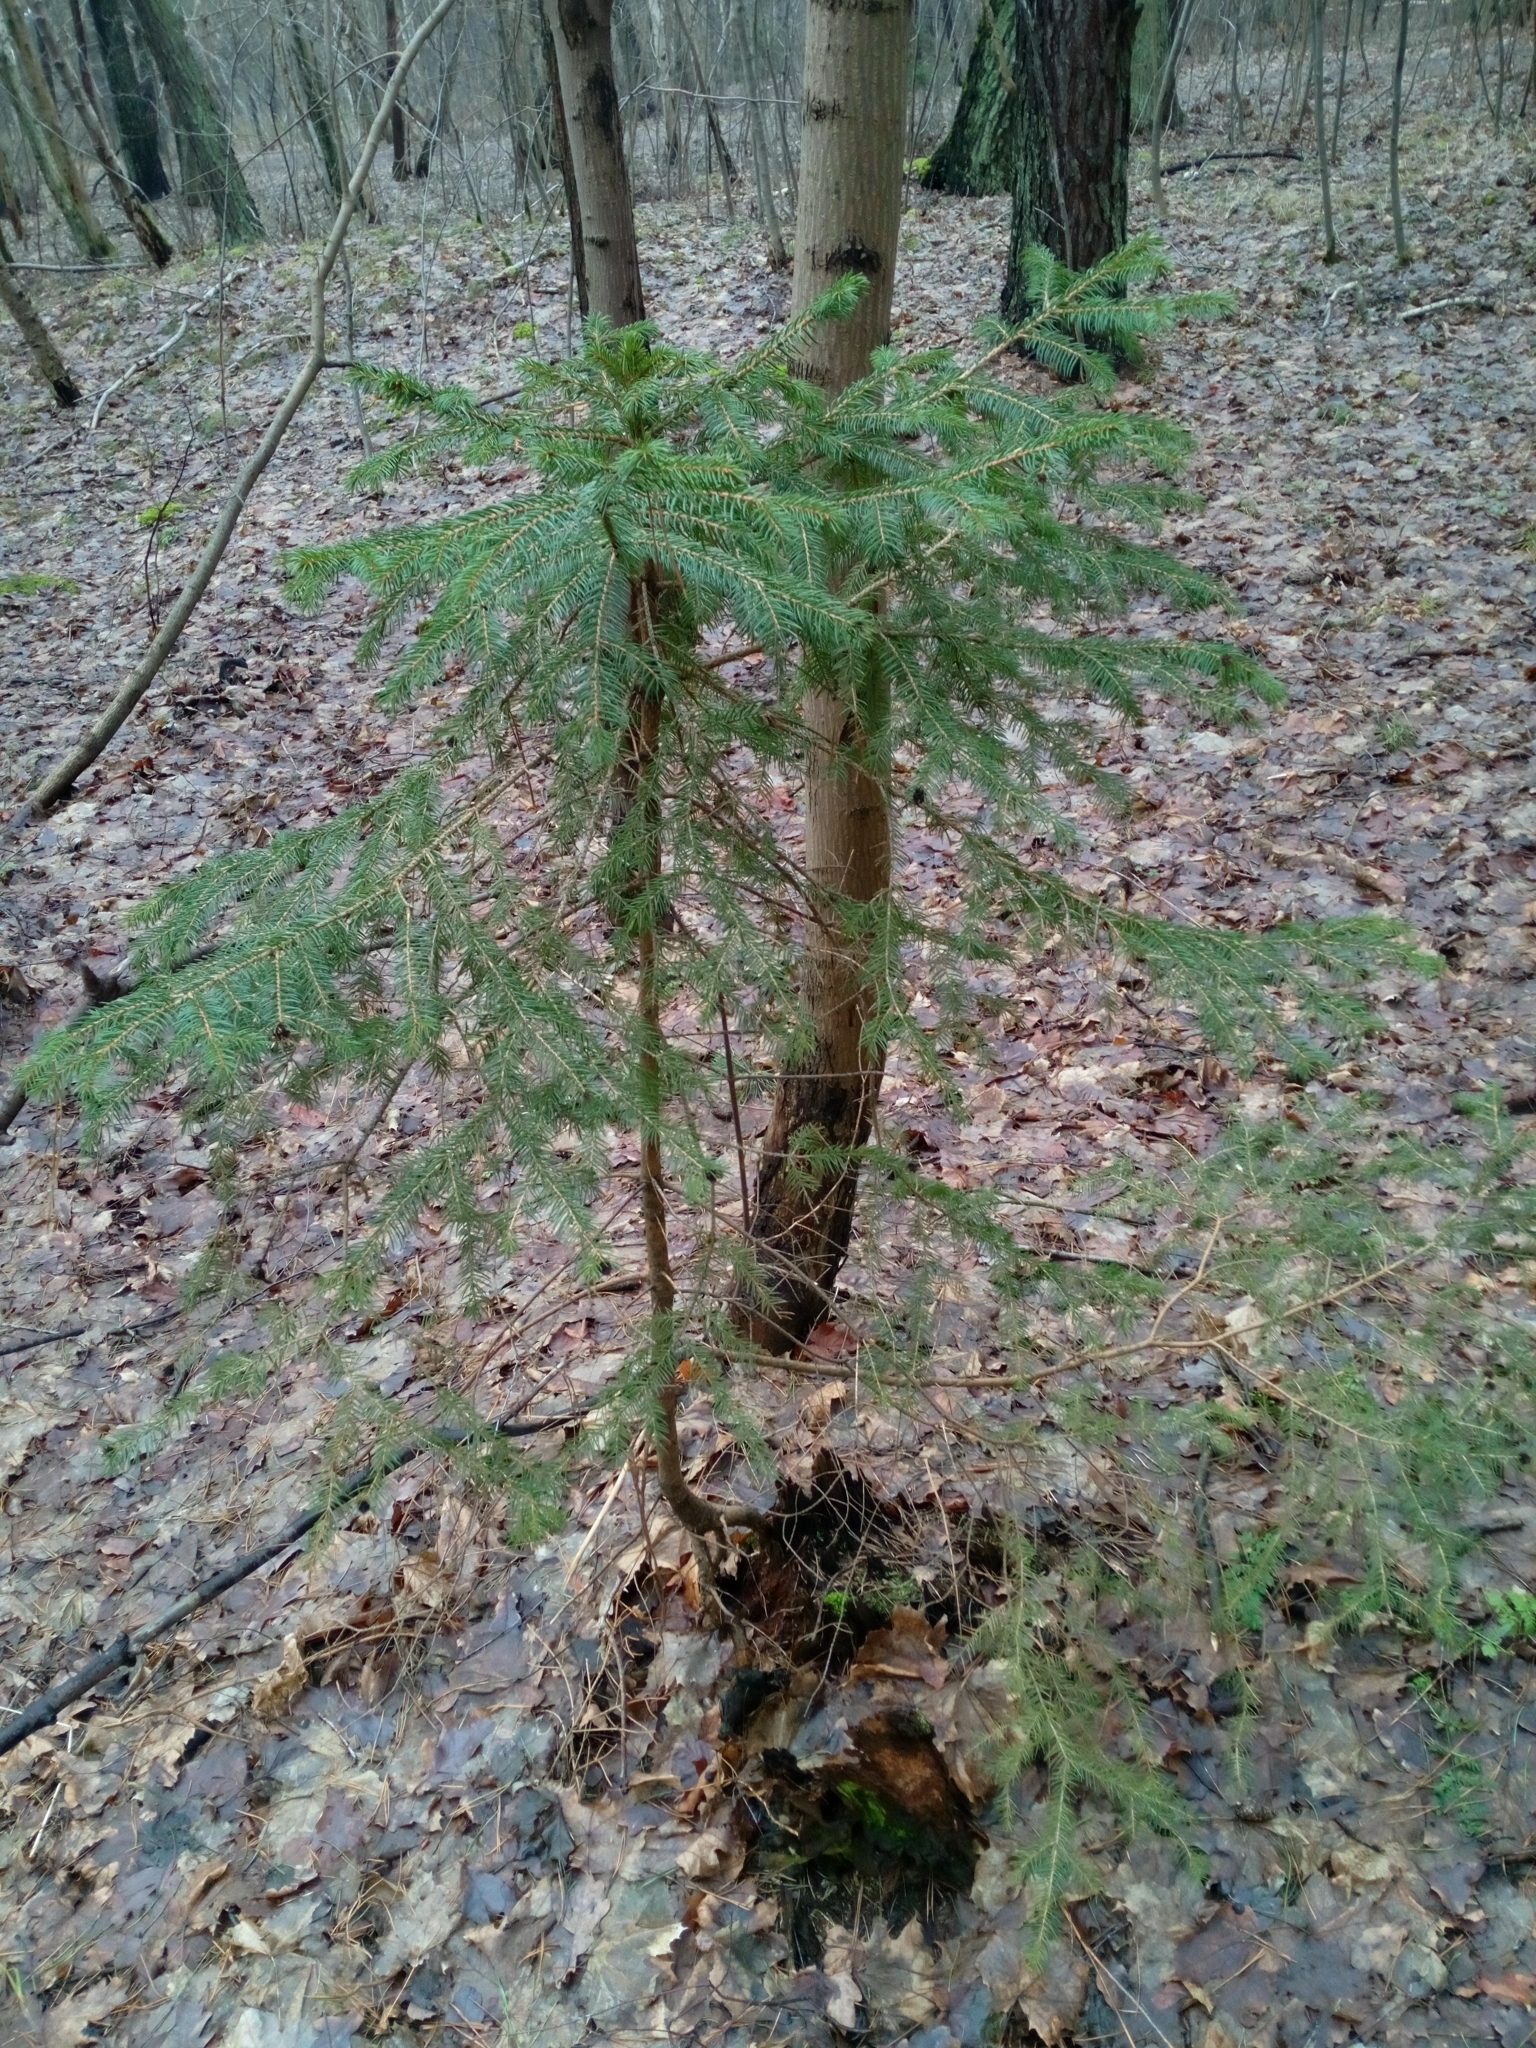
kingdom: Plantae
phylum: Tracheophyta
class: Pinopsida
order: Pinales
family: Pinaceae
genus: Picea
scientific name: Picea abies
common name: Norway spruce
